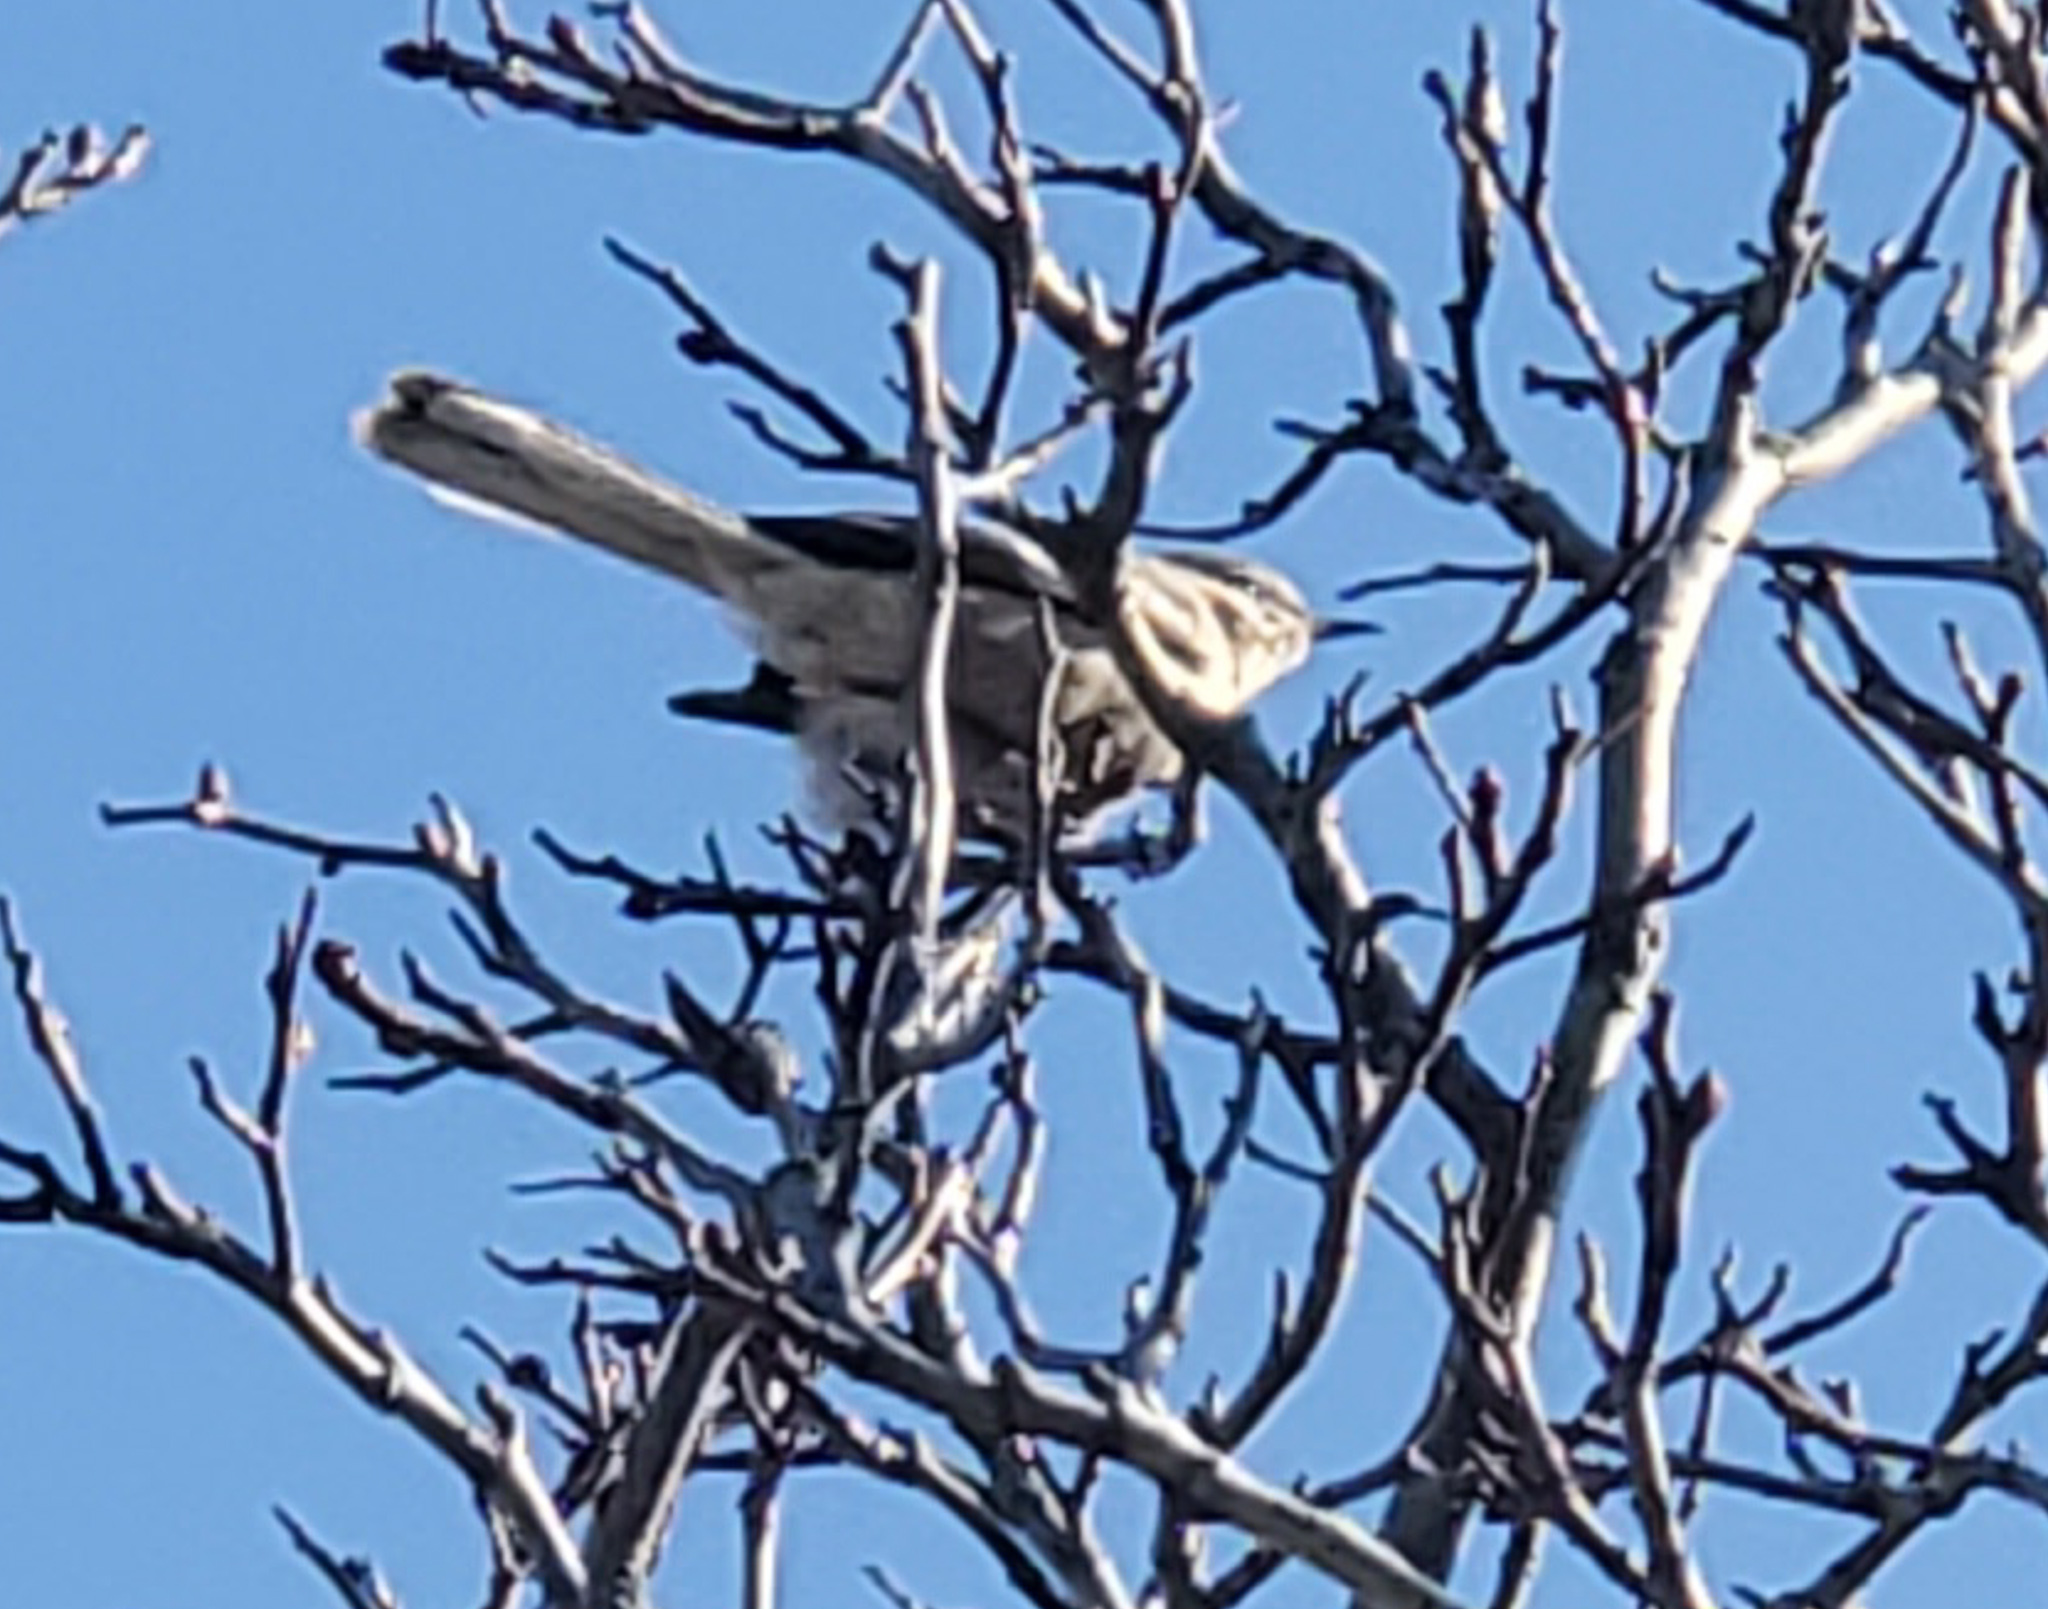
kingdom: Animalia
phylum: Chordata
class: Aves
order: Passeriformes
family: Mimidae
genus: Mimus
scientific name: Mimus polyglottos
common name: Northern mockingbird
